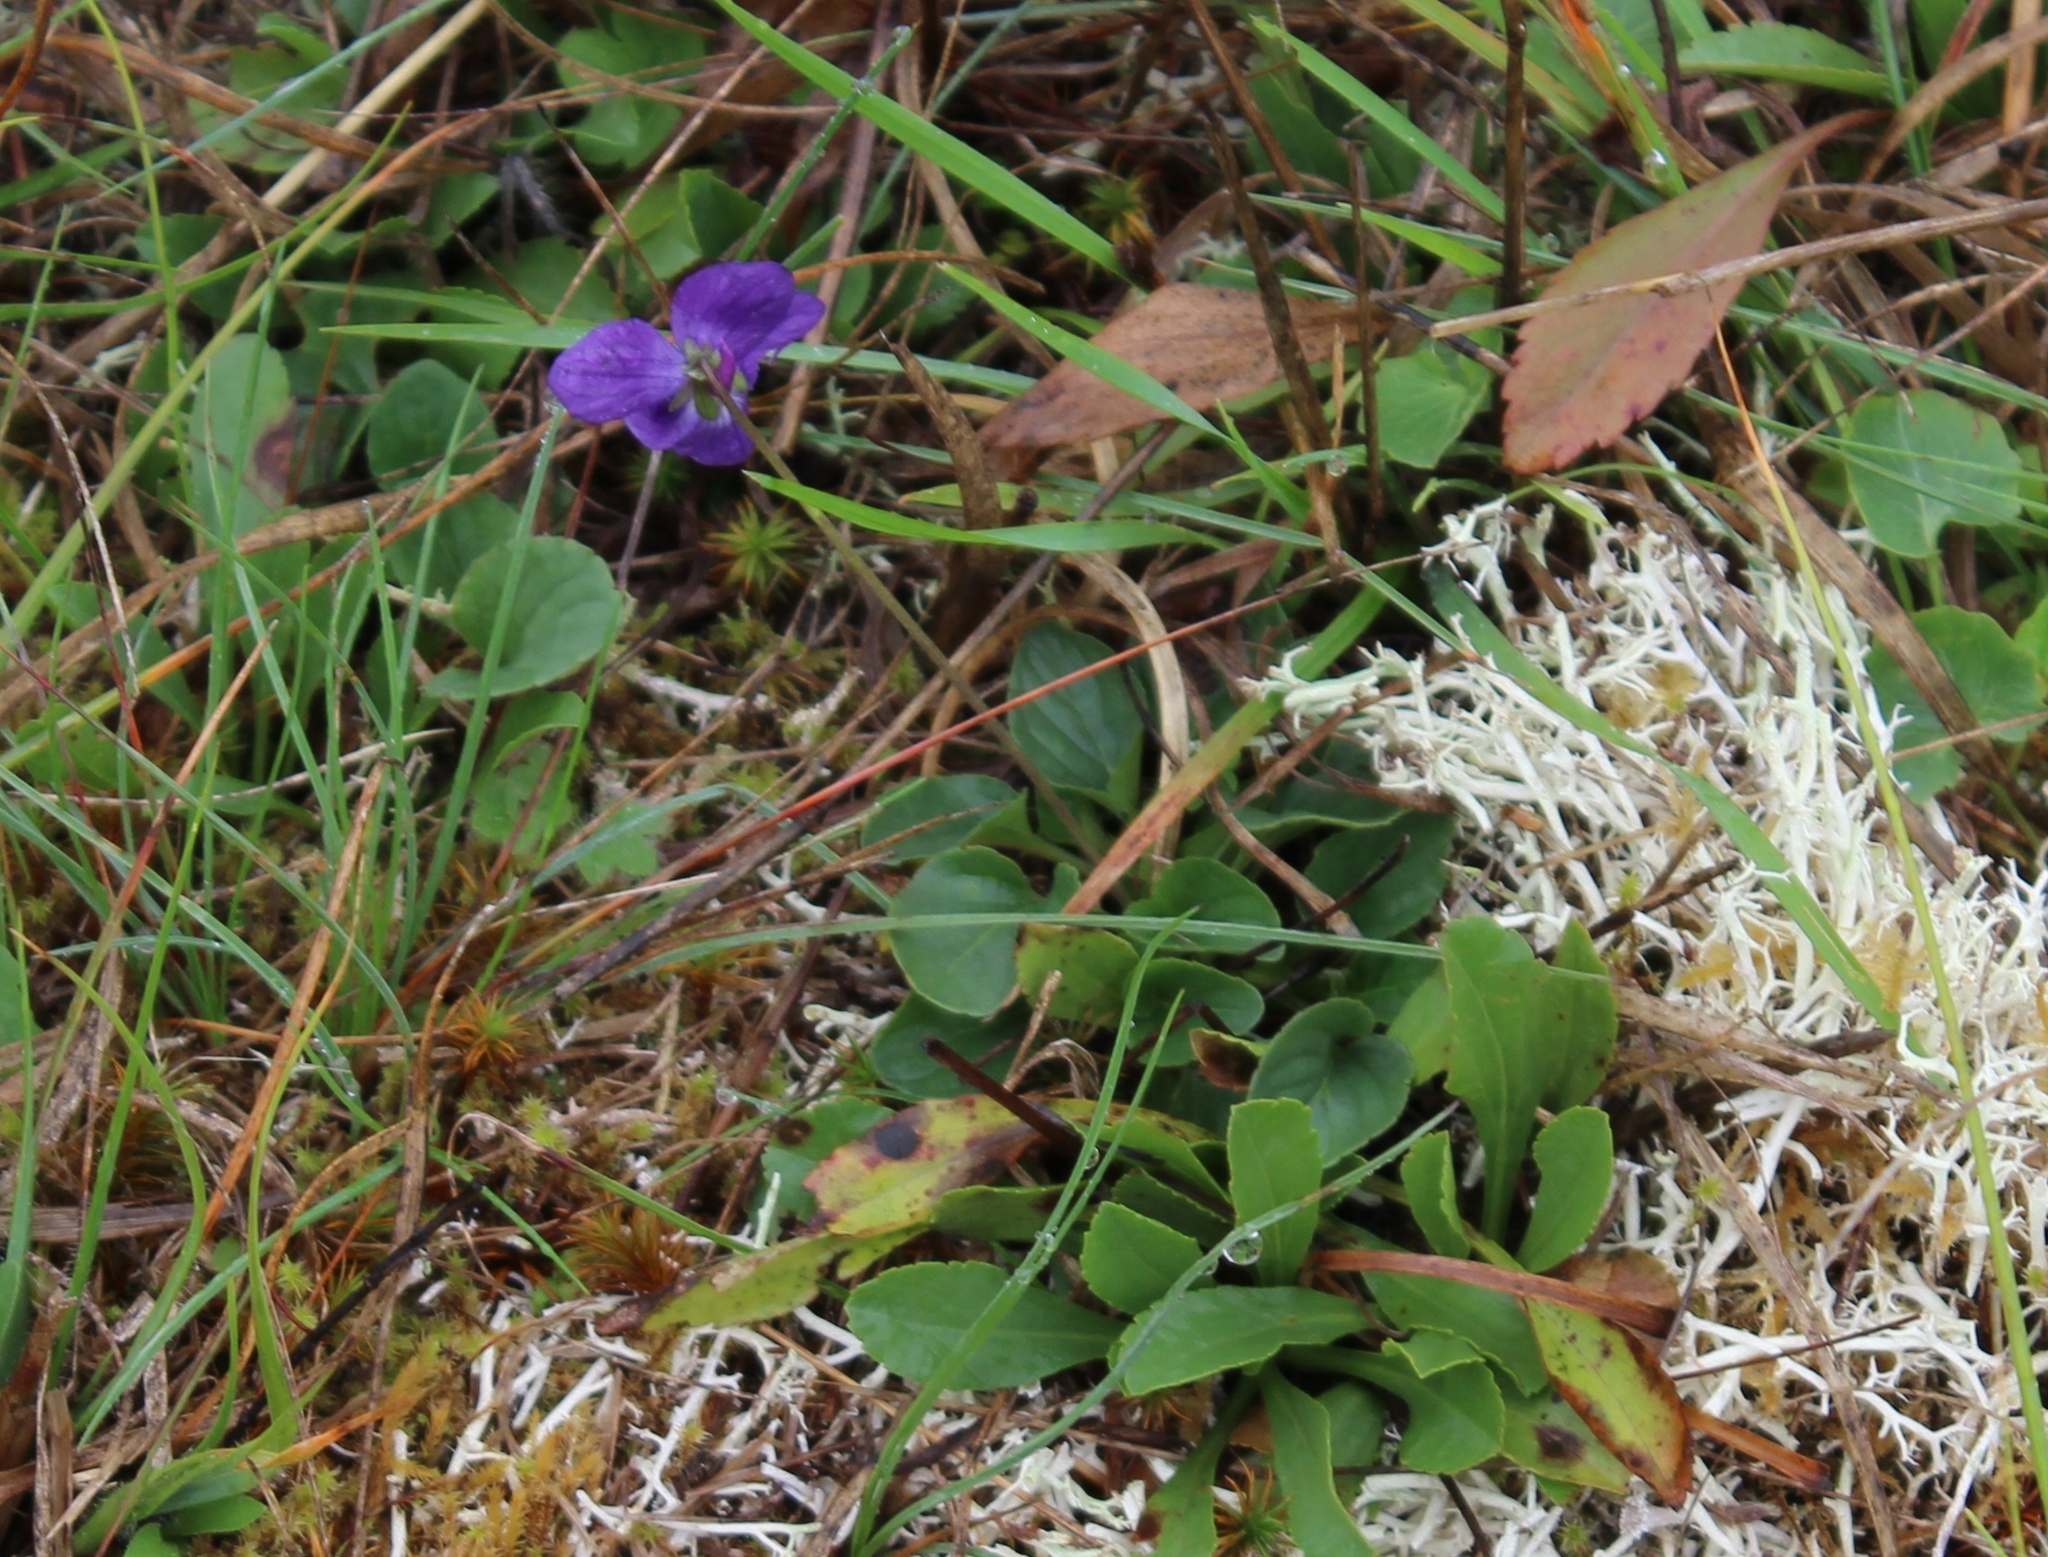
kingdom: Plantae
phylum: Tracheophyta
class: Magnoliopsida
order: Malpighiales
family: Violaceae
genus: Viola
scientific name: Viola adunca
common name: Sand violet
